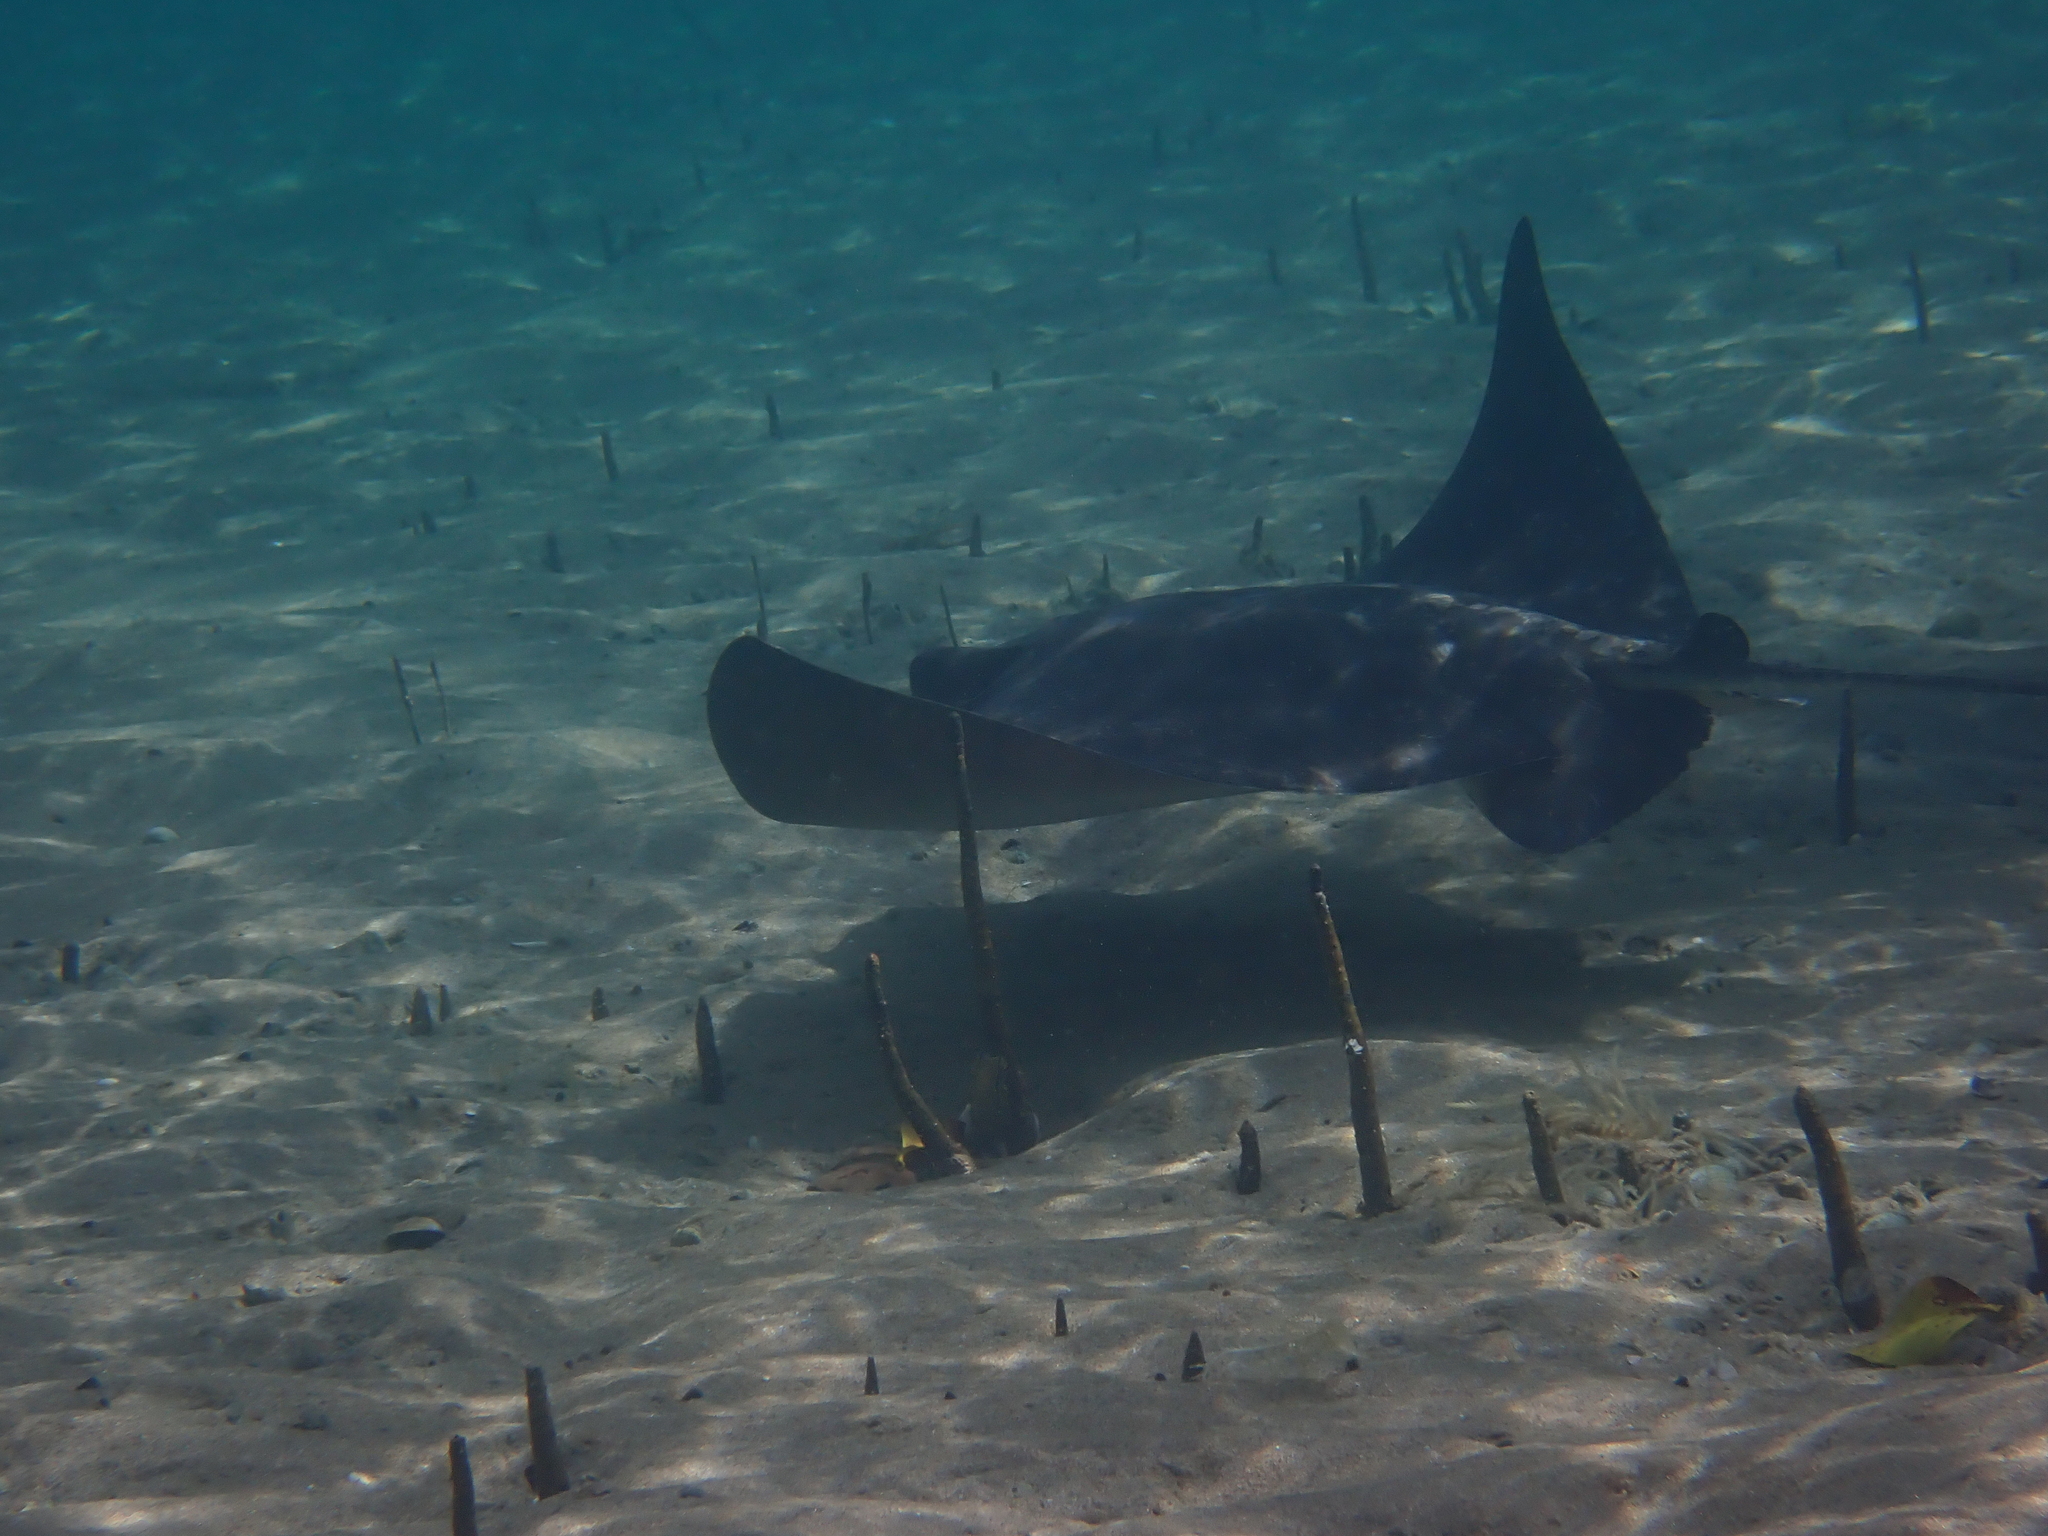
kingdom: Animalia
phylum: Chordata
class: Elasmobranchii
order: Myliobatiformes
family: Myliobatidae
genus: Myliobatis
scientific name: Myliobatis tenuicaudatus
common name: Eagle ray
